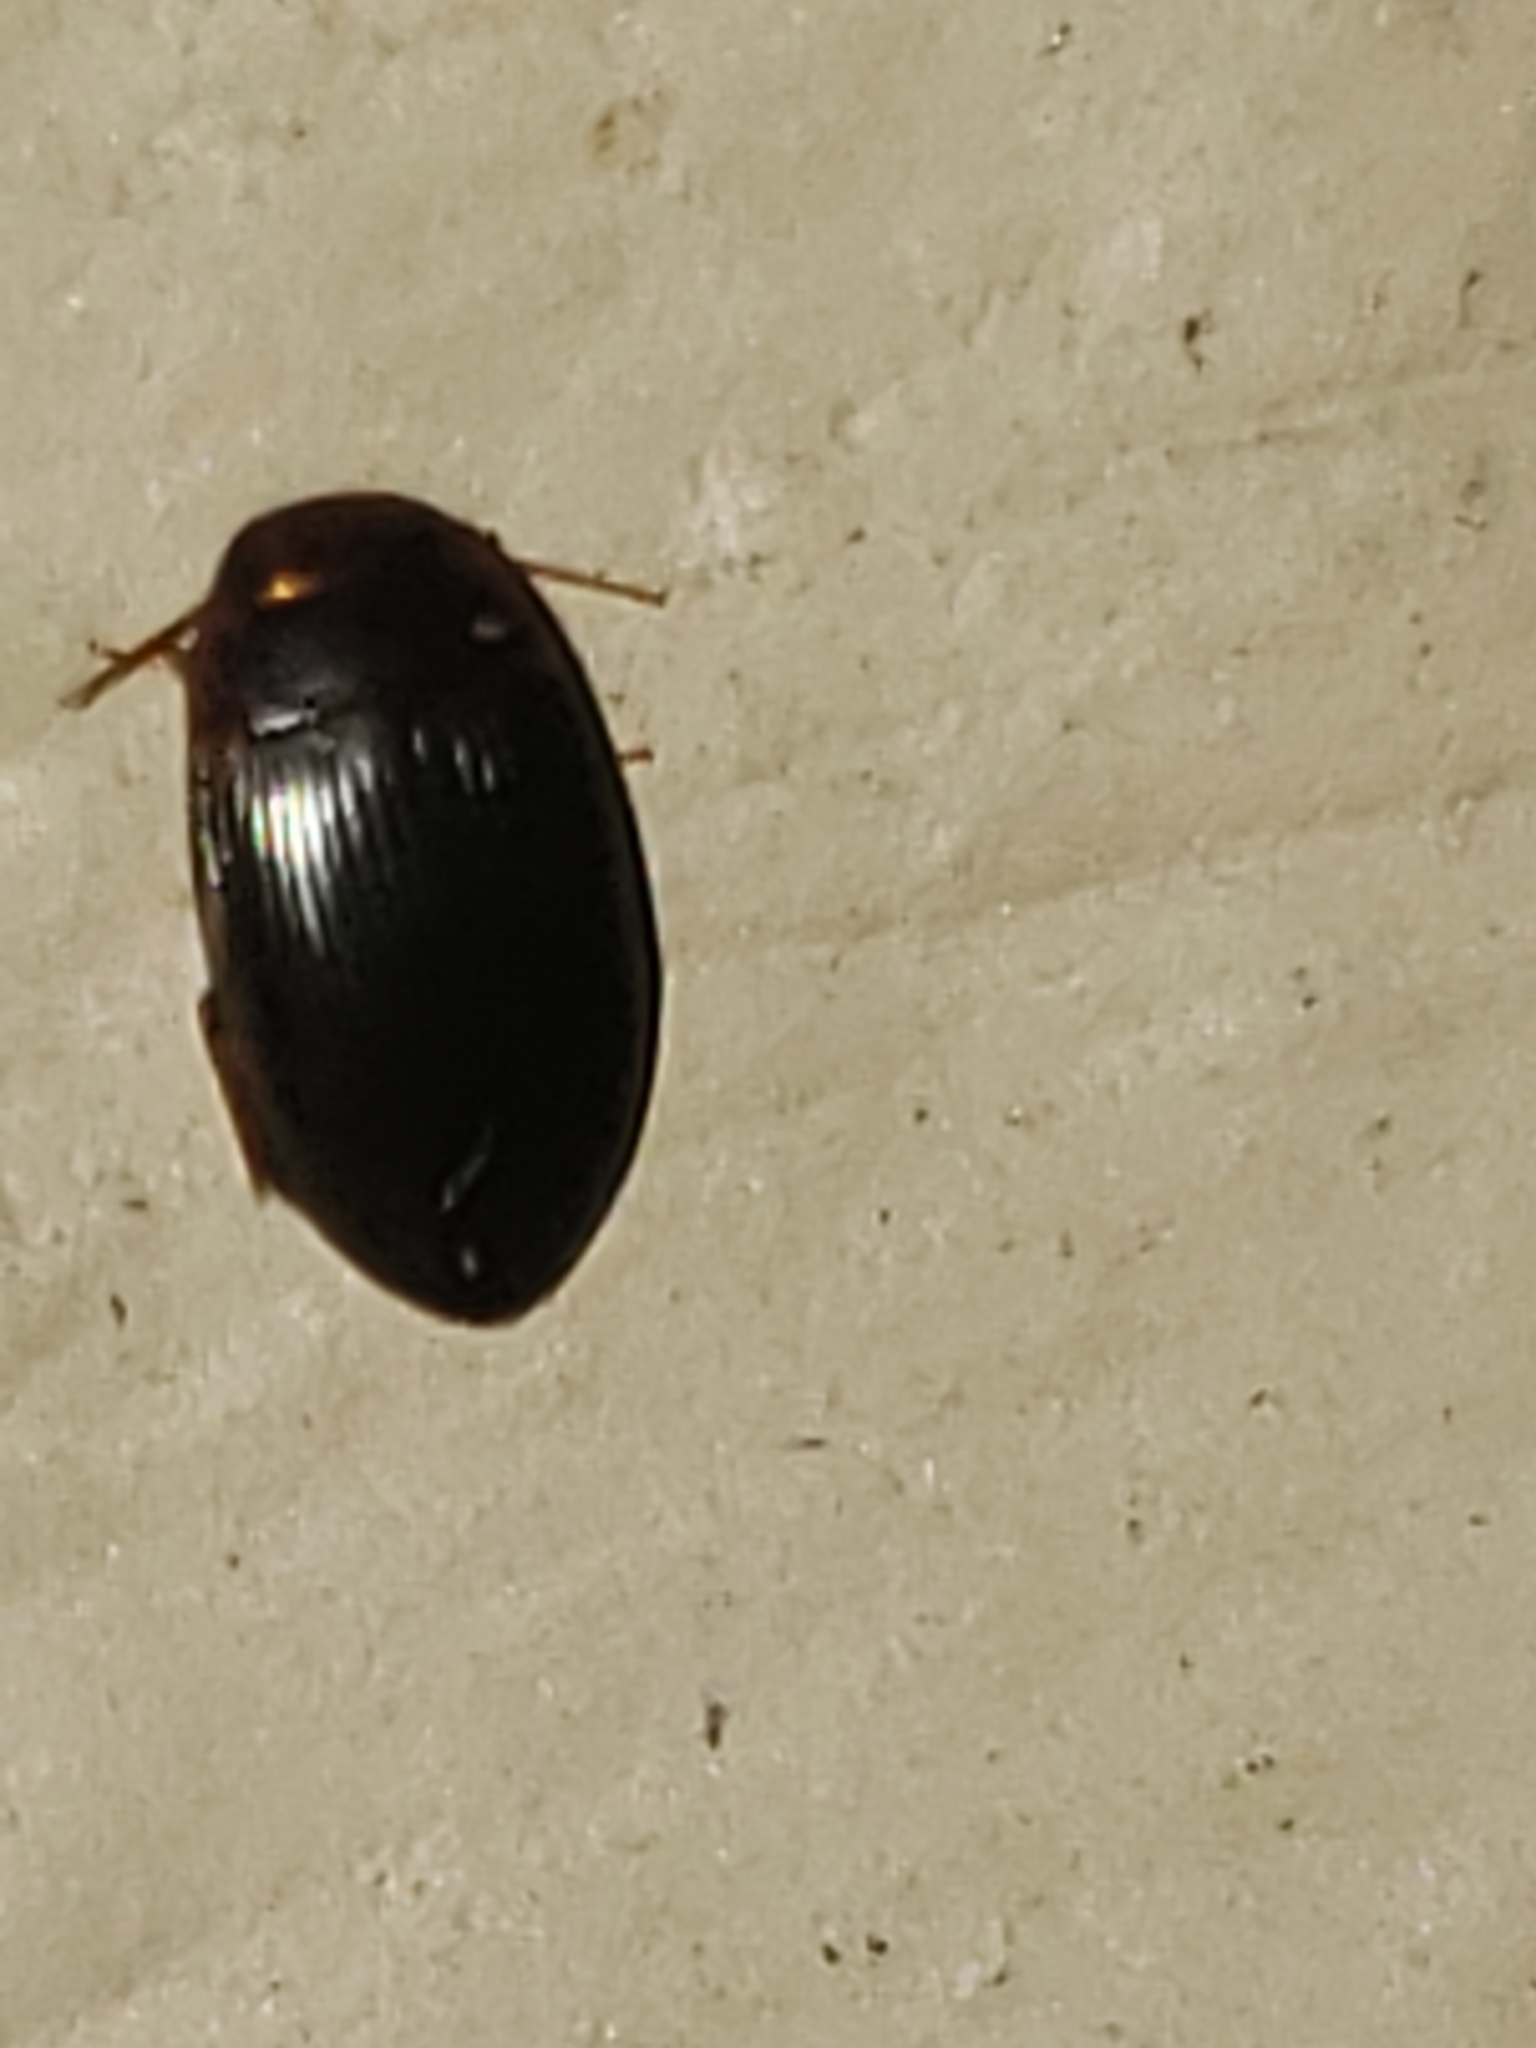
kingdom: Animalia
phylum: Arthropoda
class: Insecta
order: Coleoptera
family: Dytiscidae
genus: Copelatus
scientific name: Copelatus glyphicus
